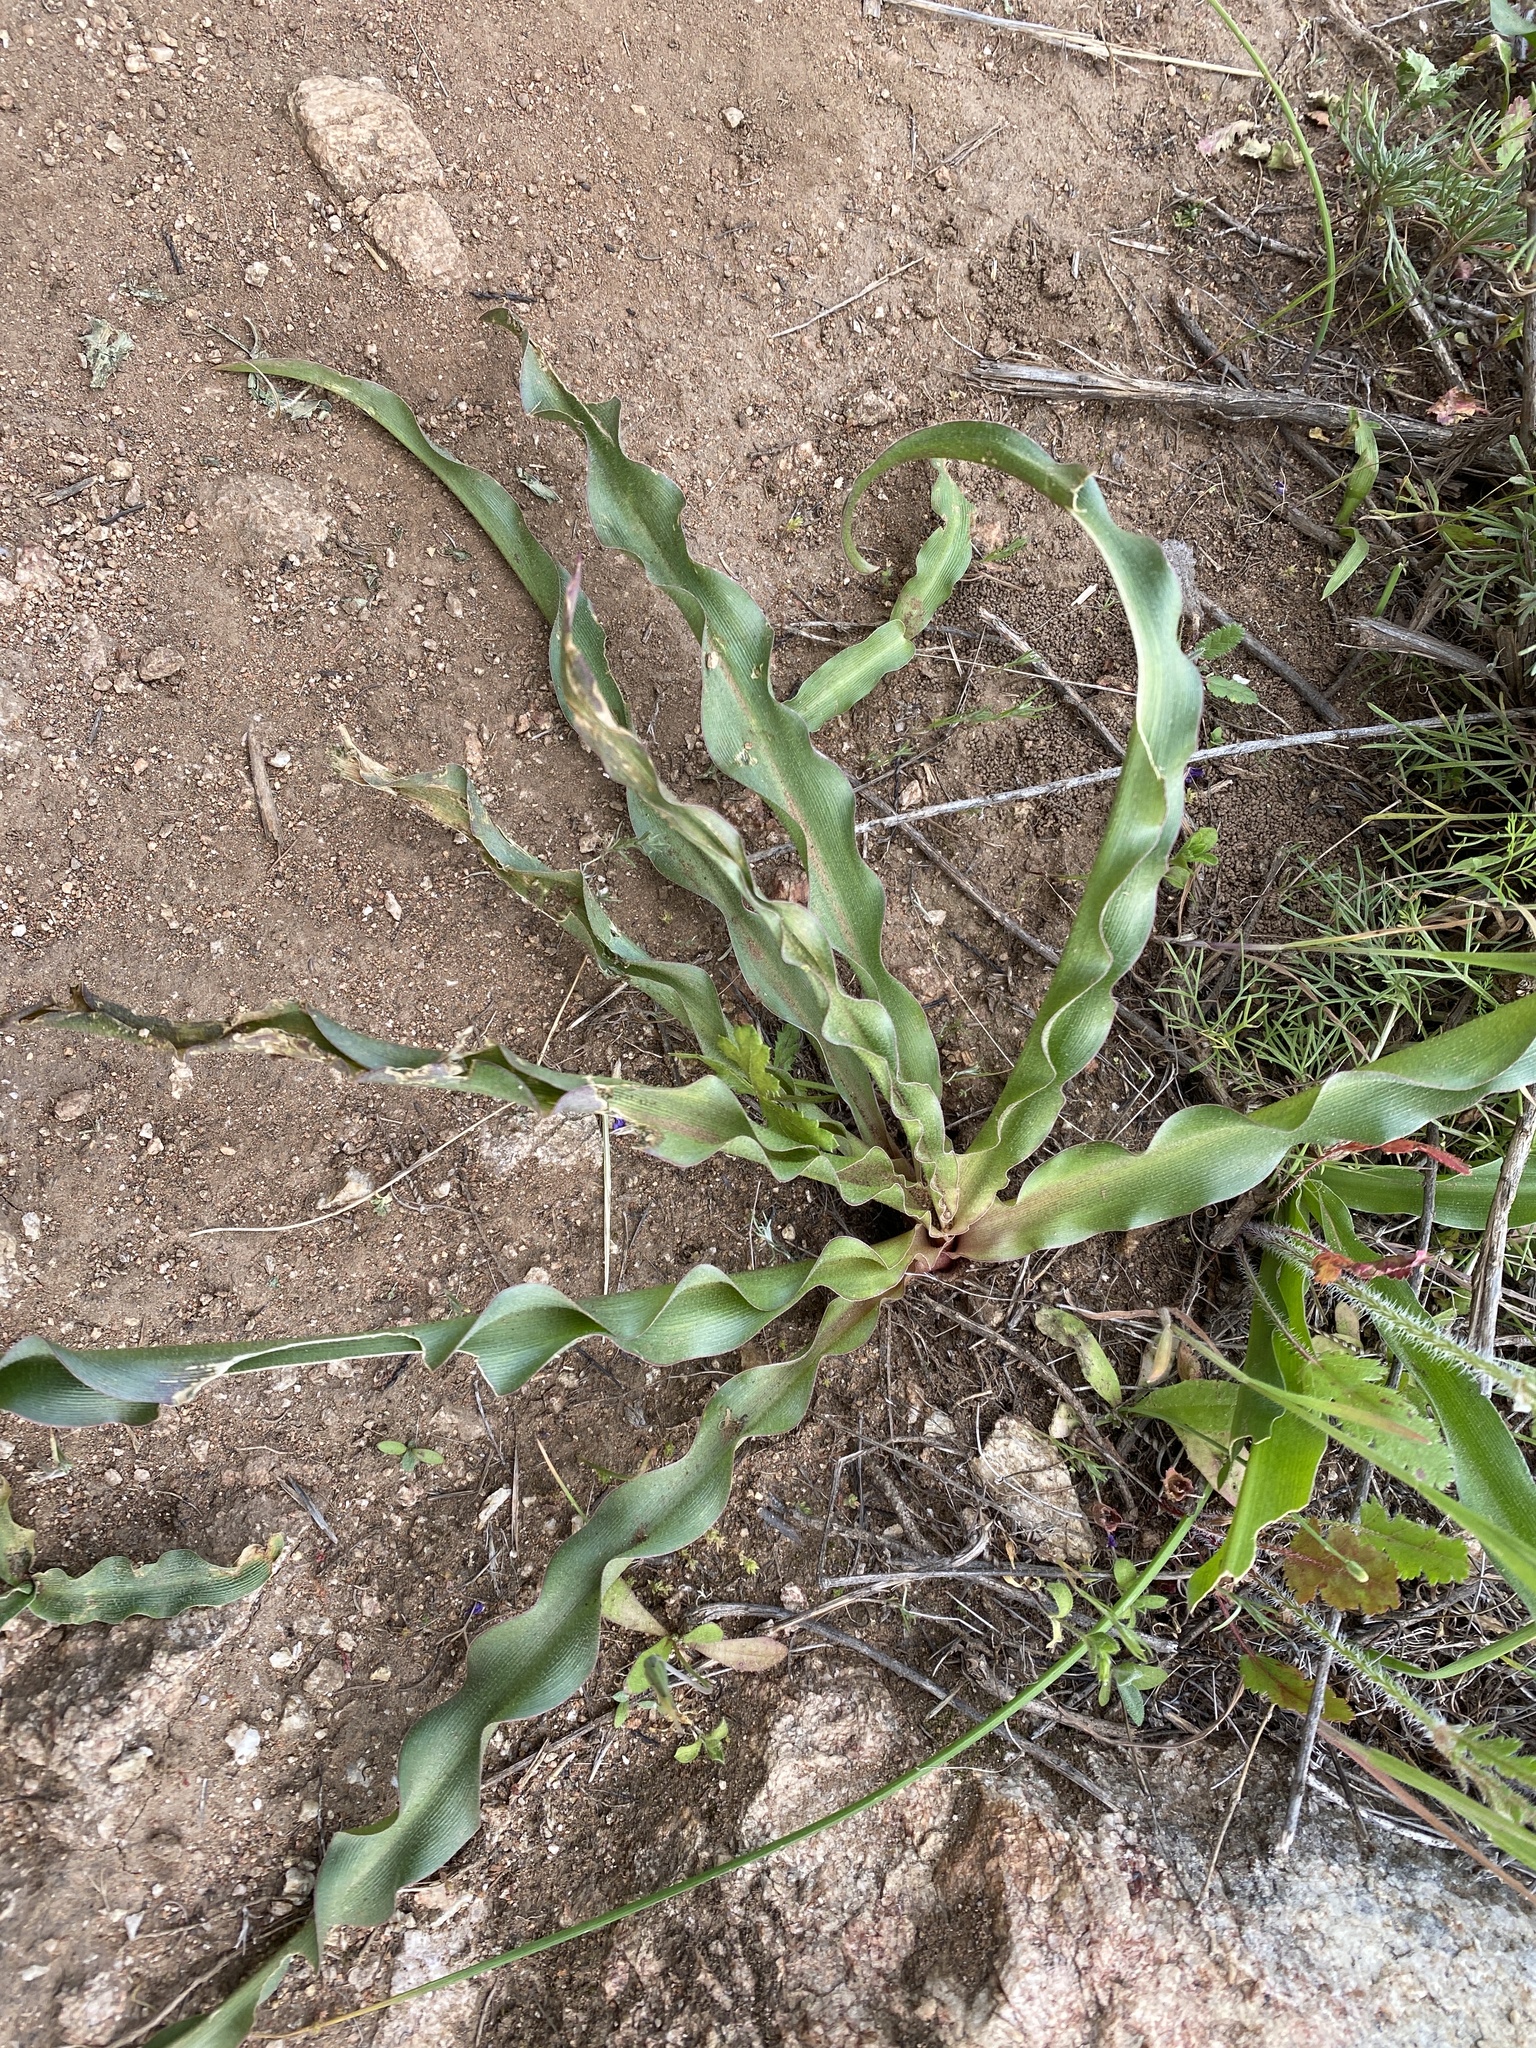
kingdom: Plantae
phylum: Tracheophyta
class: Liliopsida
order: Asparagales
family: Asparagaceae
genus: Hooveria
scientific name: Hooveria parviflora
